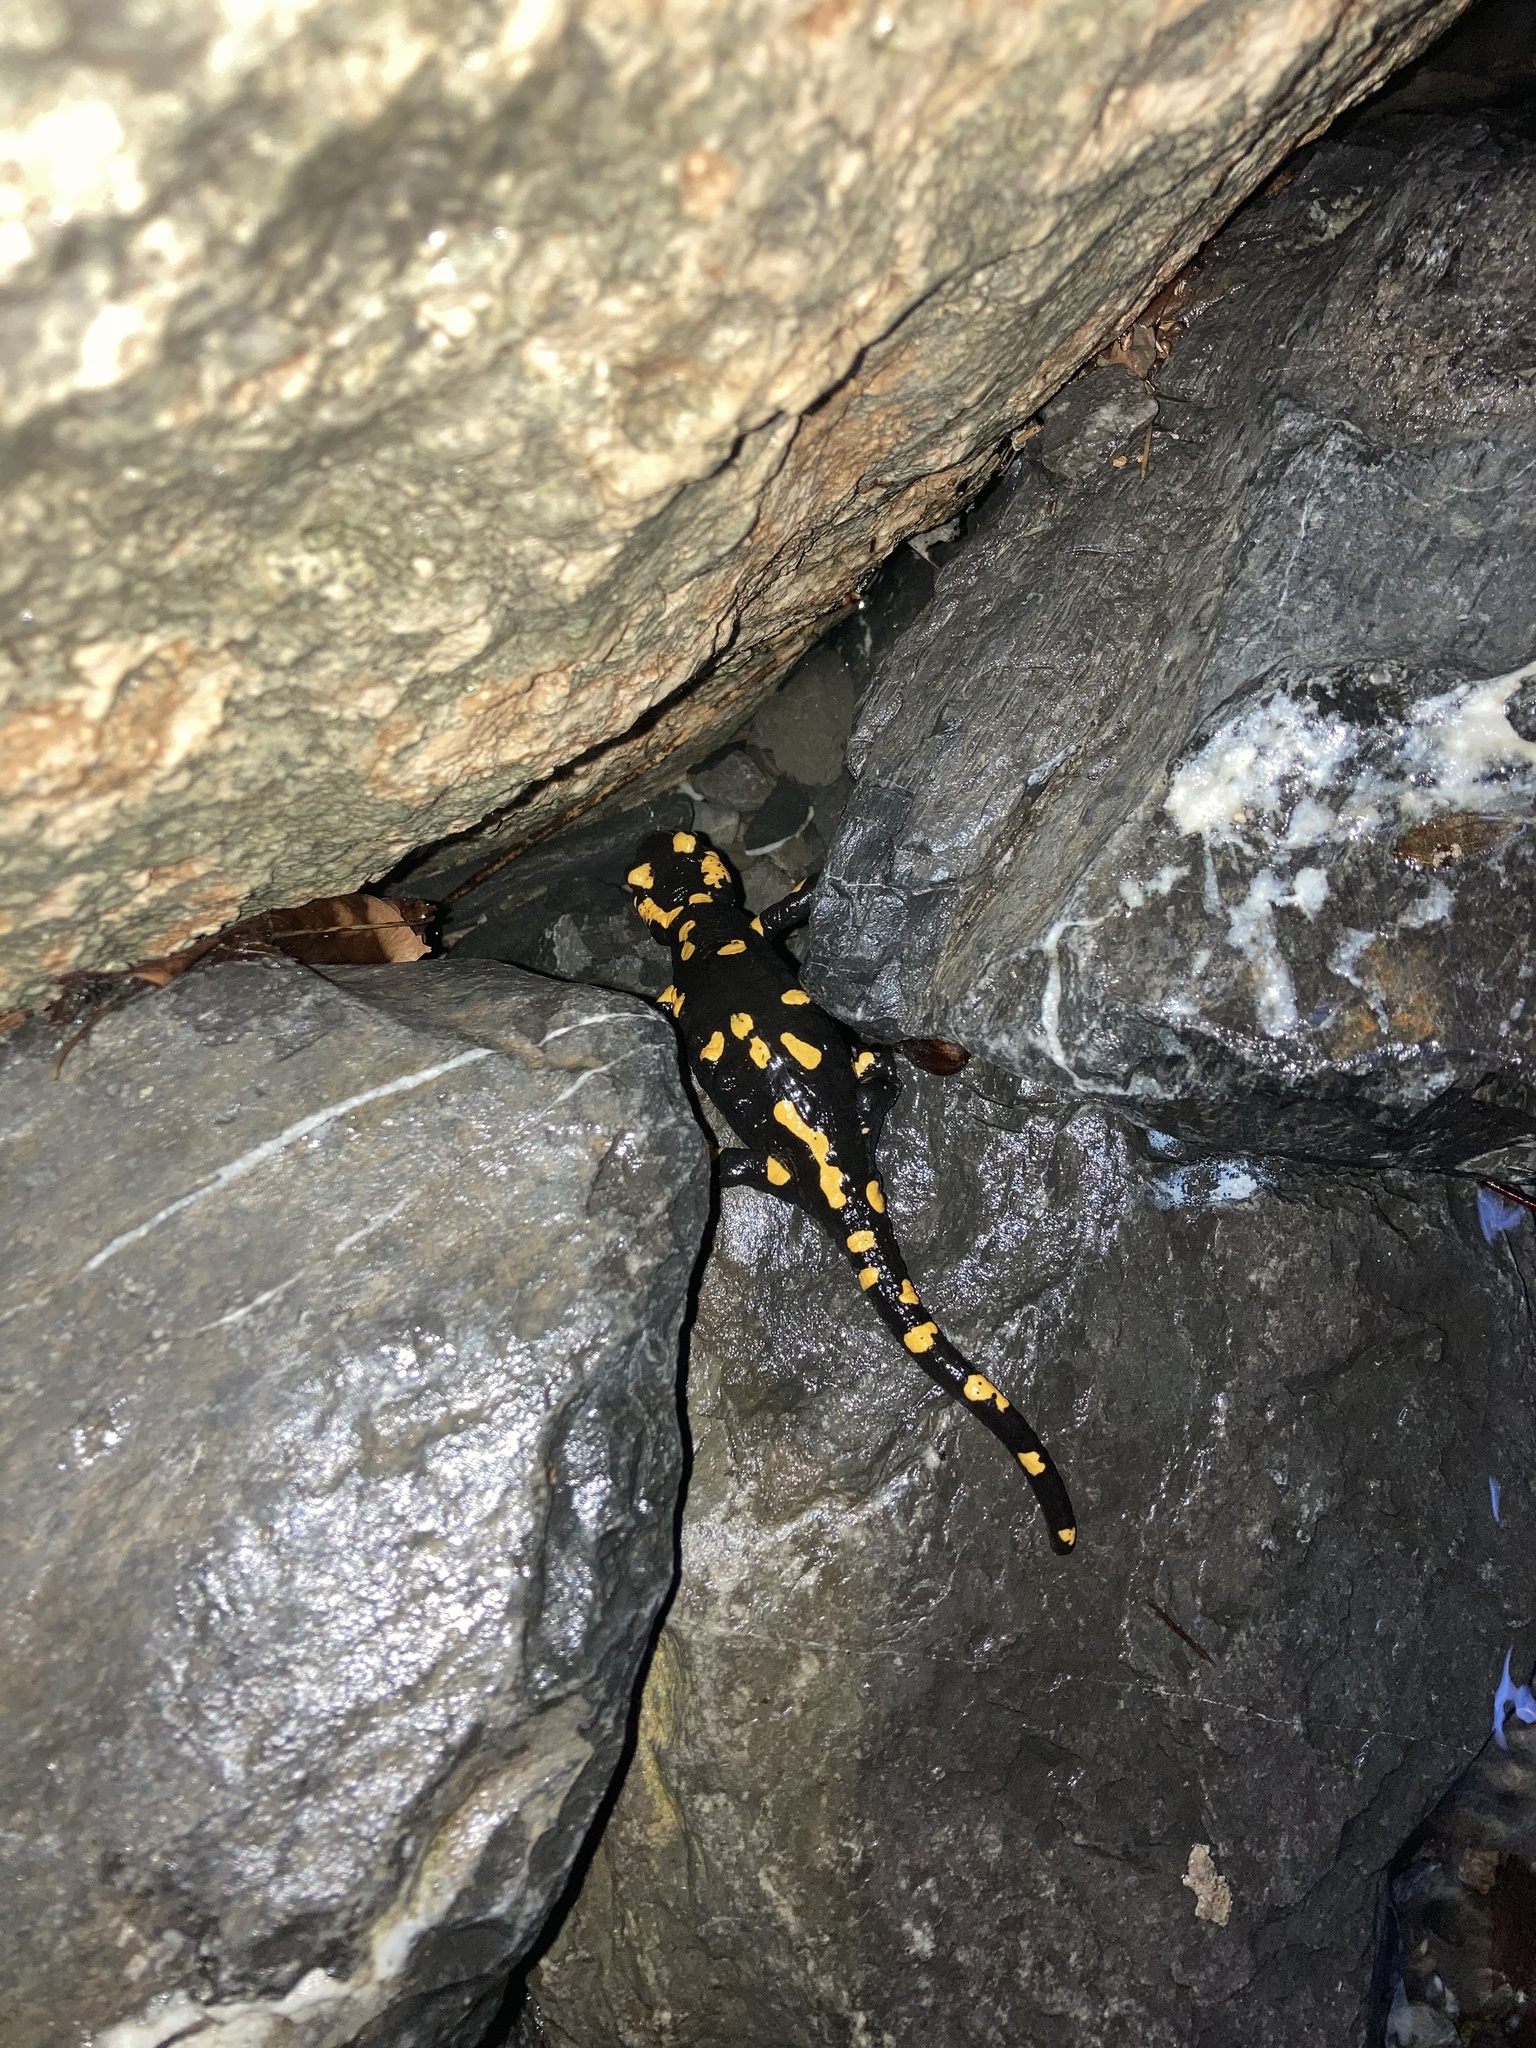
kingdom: Animalia
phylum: Chordata
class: Amphibia
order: Caudata
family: Salamandridae
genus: Salamandra
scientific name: Salamandra salamandra
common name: Fire salamander
